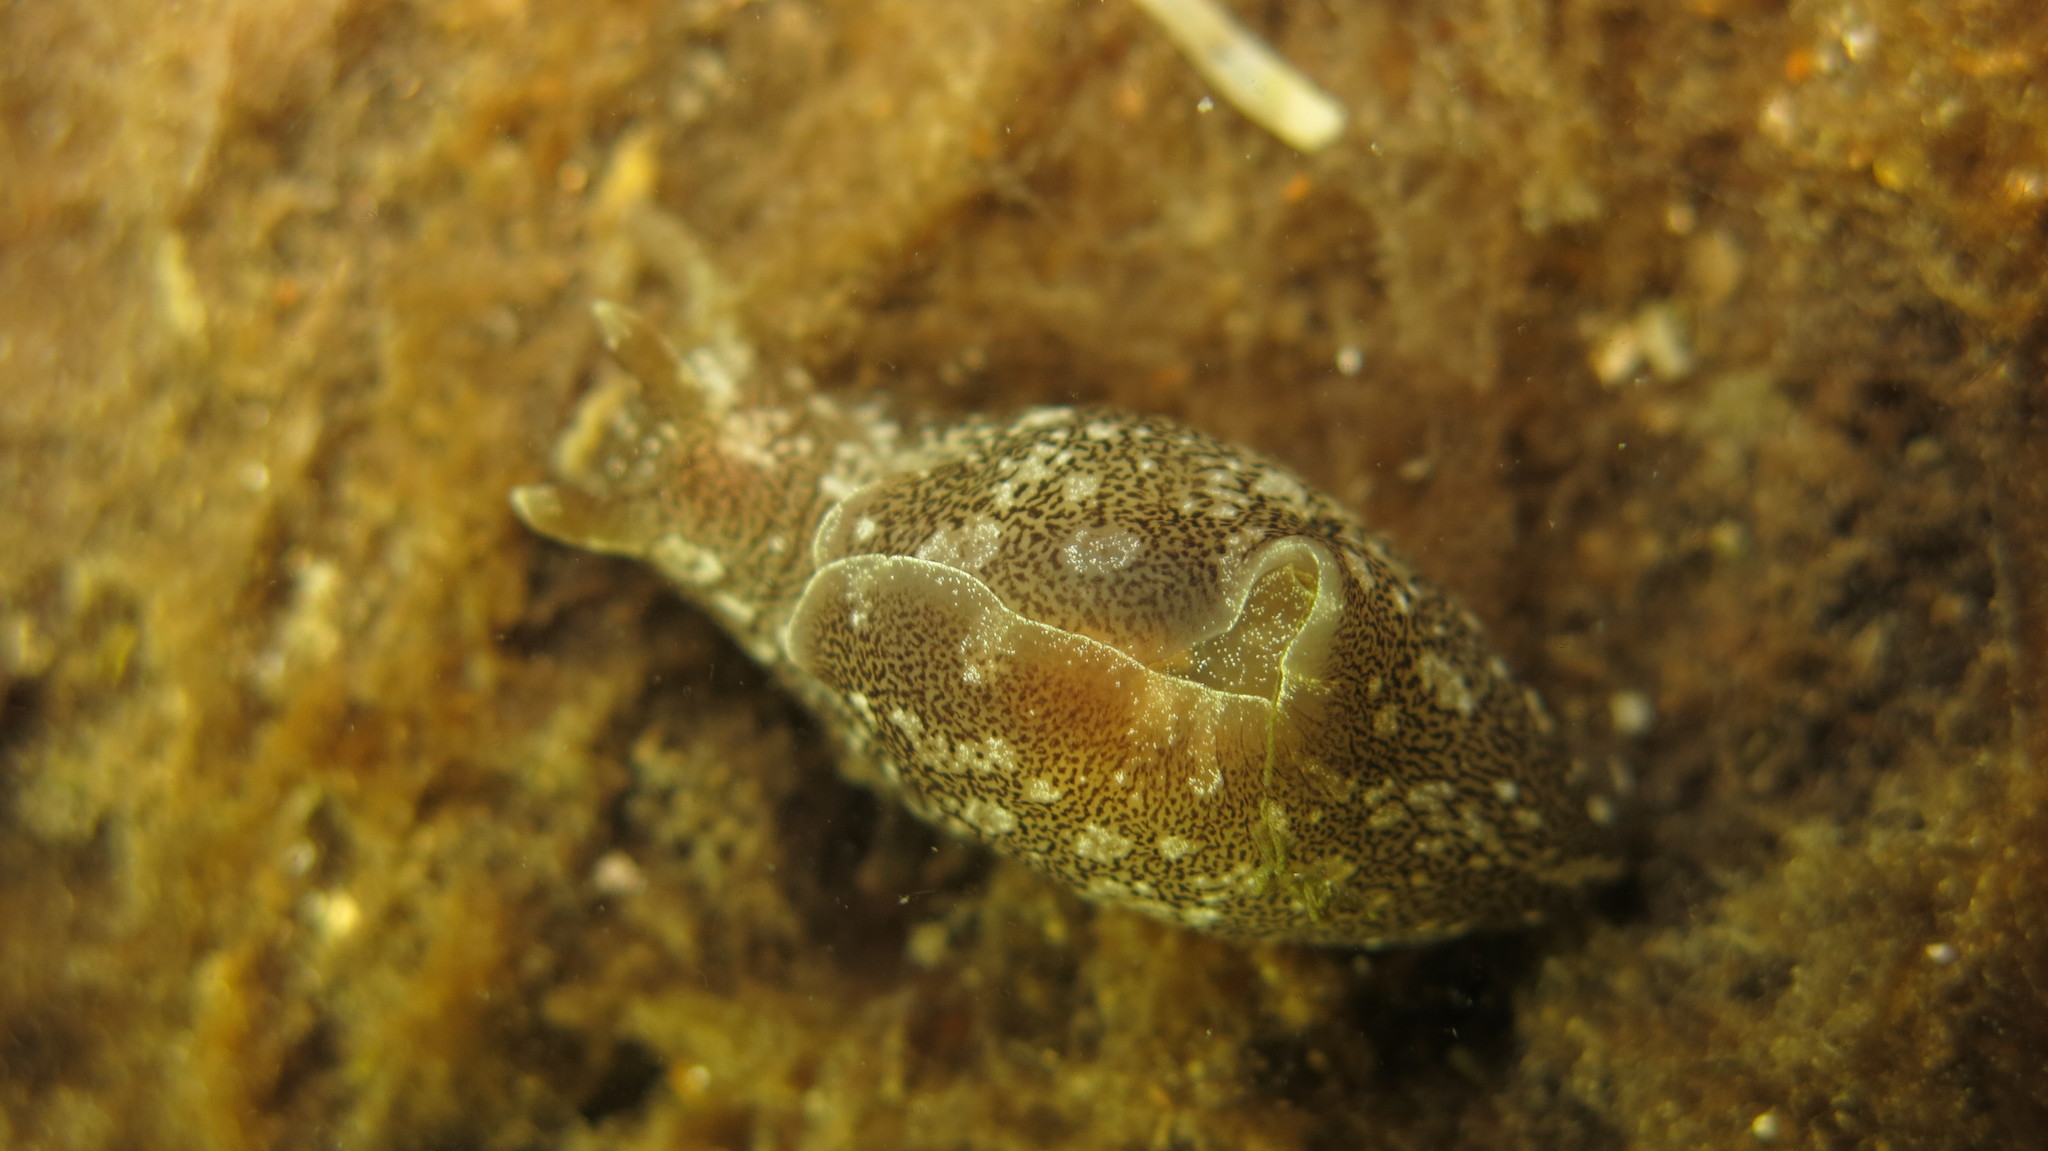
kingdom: Animalia
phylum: Mollusca
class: Gastropoda
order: Aplysiida
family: Aplysiidae
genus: Aplysia
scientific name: Aplysia punctata
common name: Common sea hare
